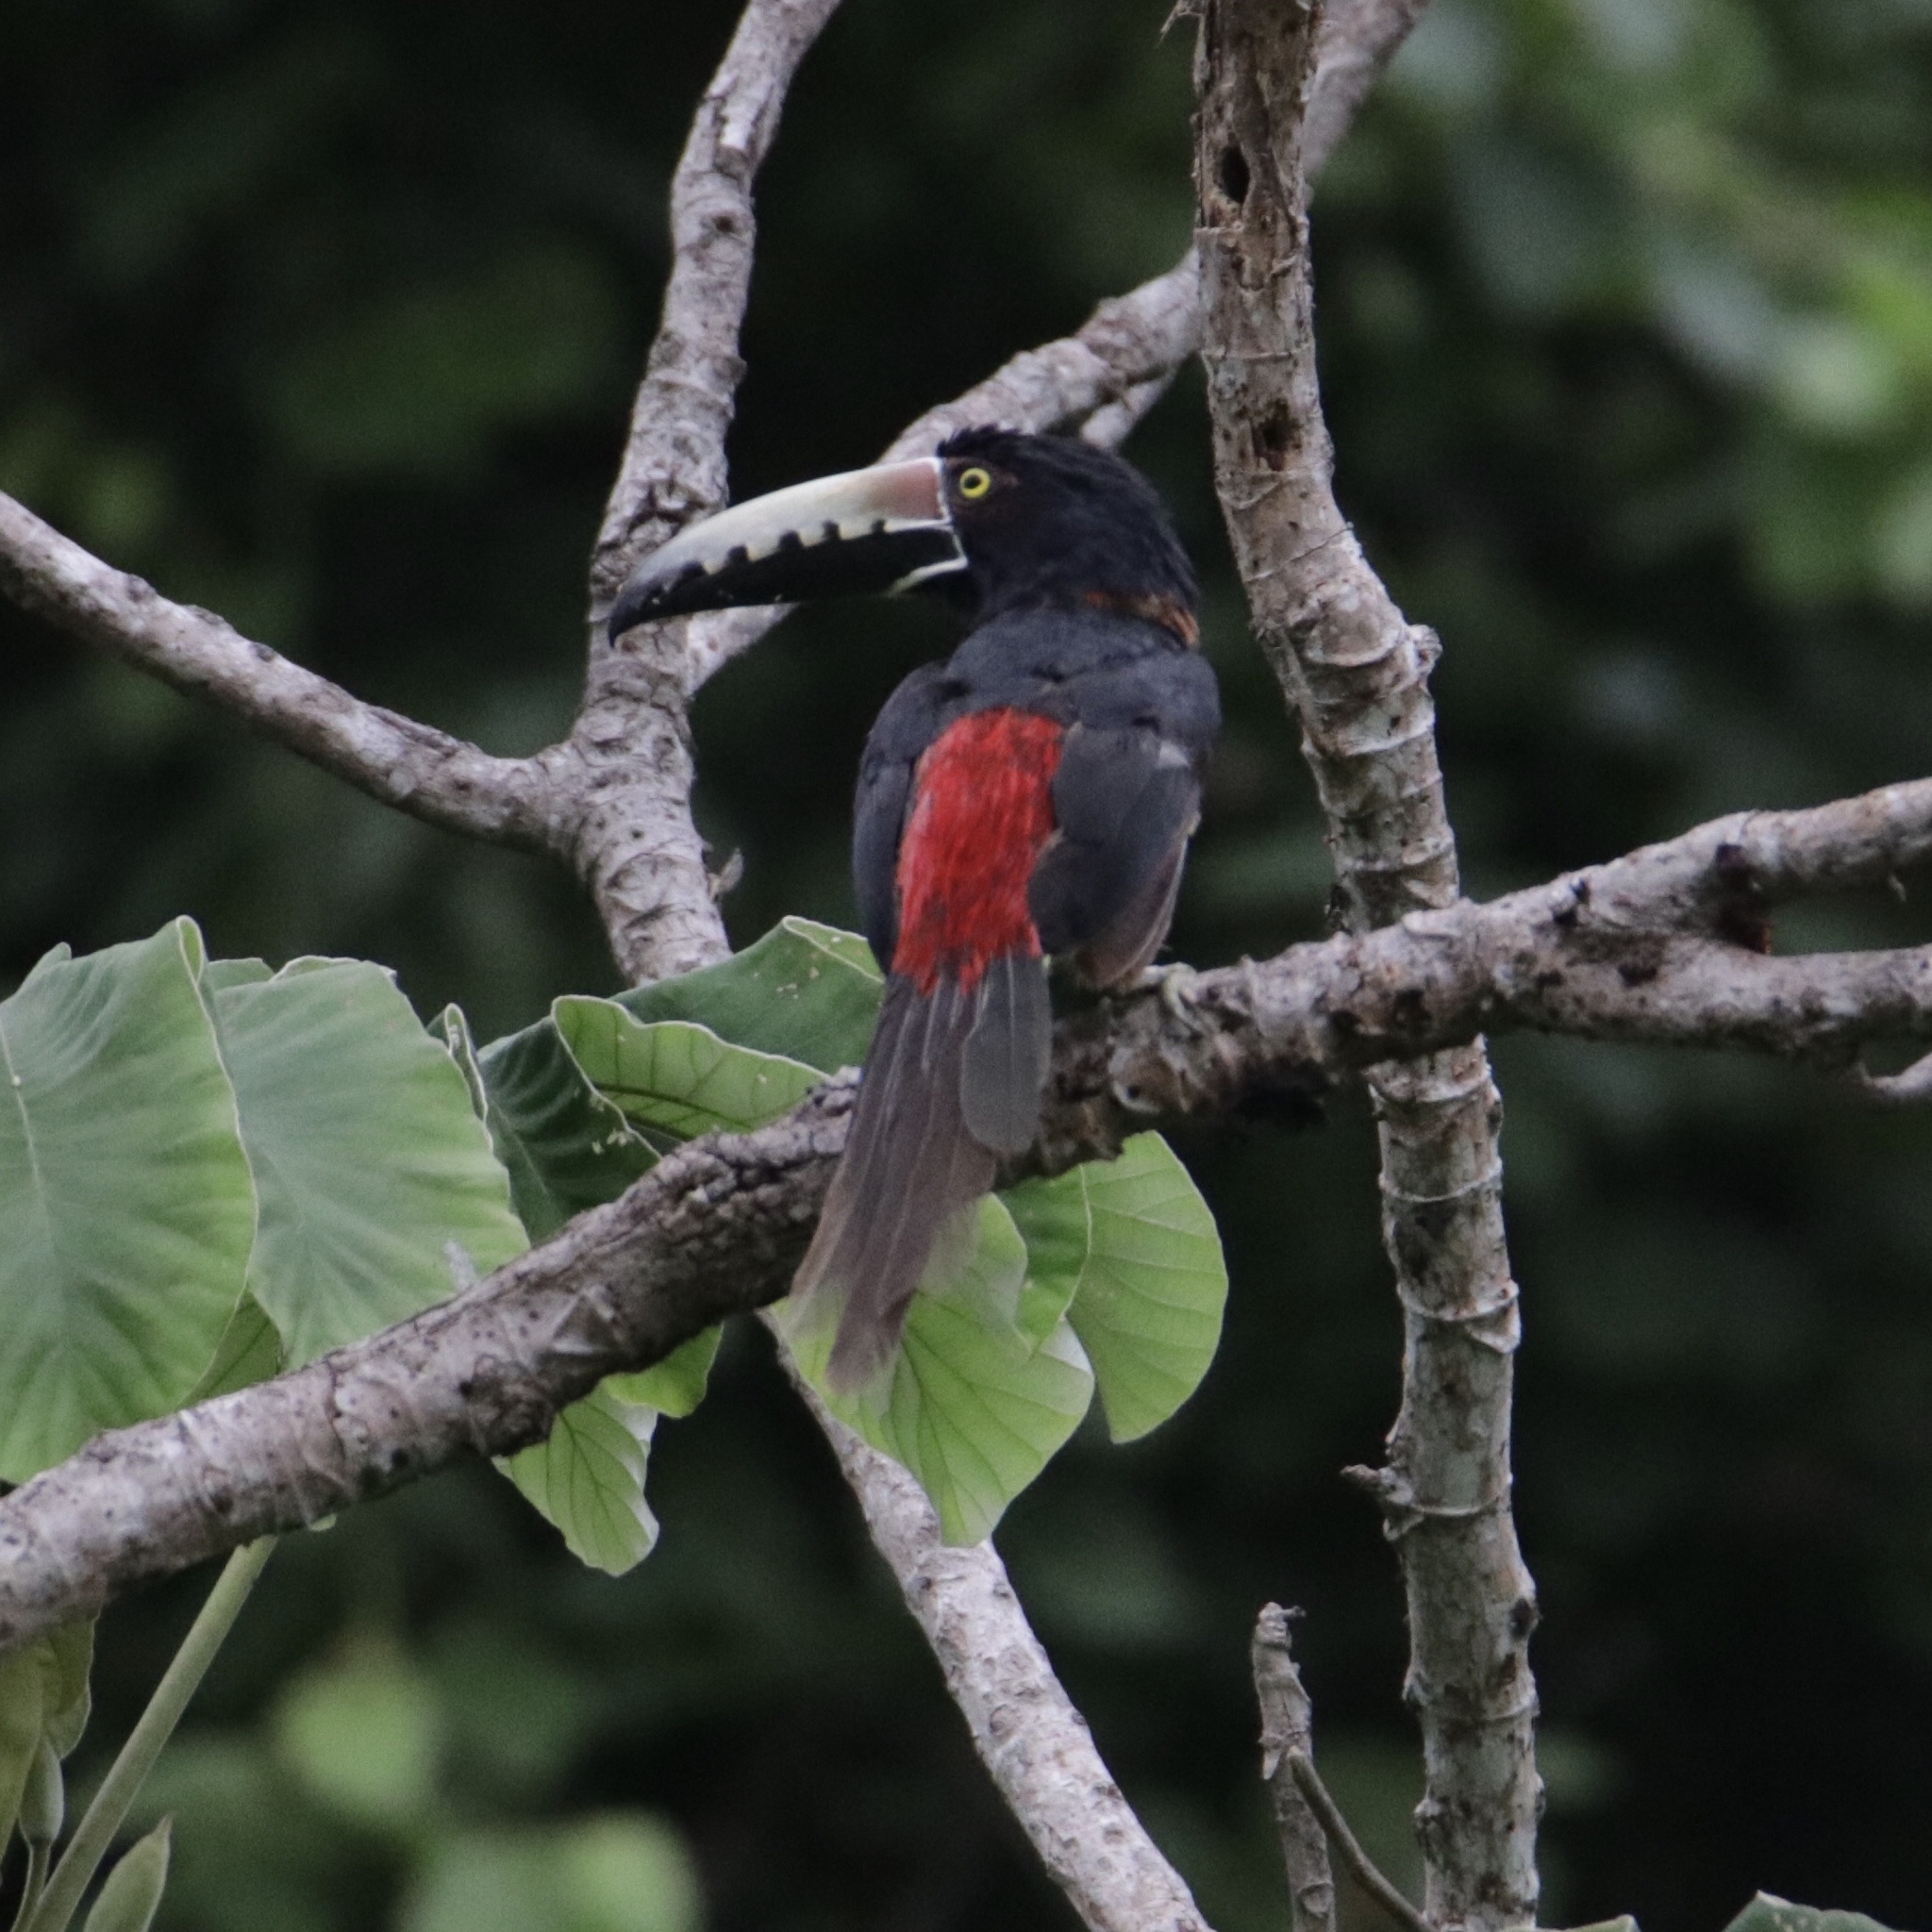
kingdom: Animalia
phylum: Chordata
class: Aves
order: Piciformes
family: Ramphastidae
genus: Pteroglossus
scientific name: Pteroglossus torquatus
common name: Collared aracari
